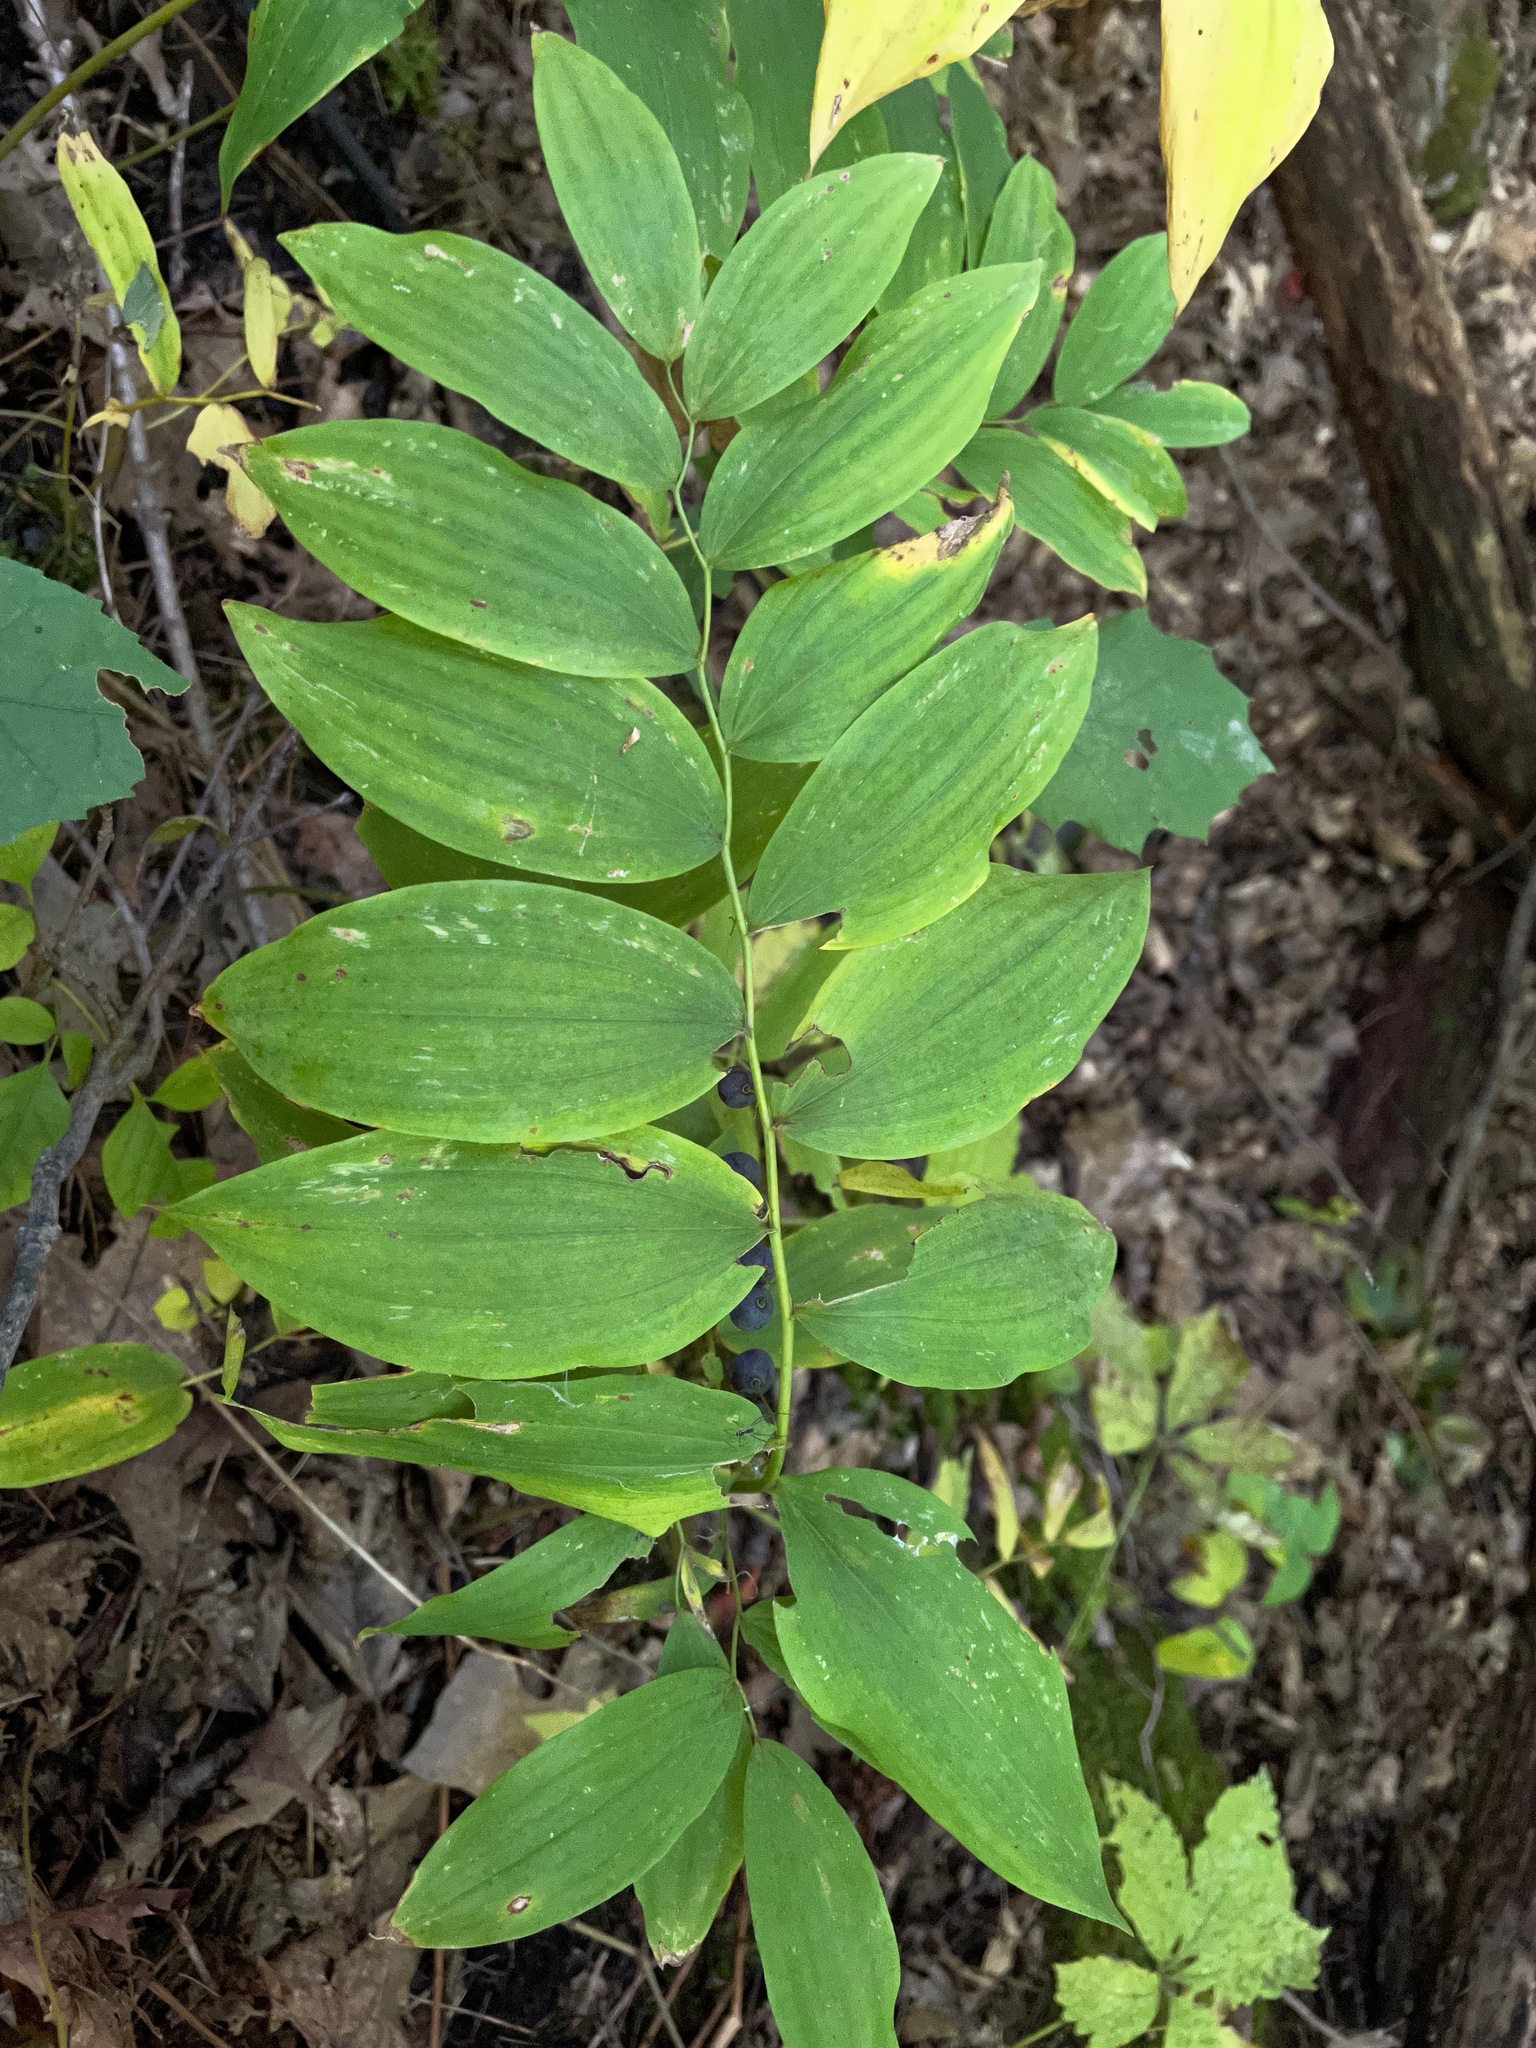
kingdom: Plantae
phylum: Tracheophyta
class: Liliopsida
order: Asparagales
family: Asparagaceae
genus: Polygonatum
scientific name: Polygonatum pubescens
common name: Downy solomon's seal
